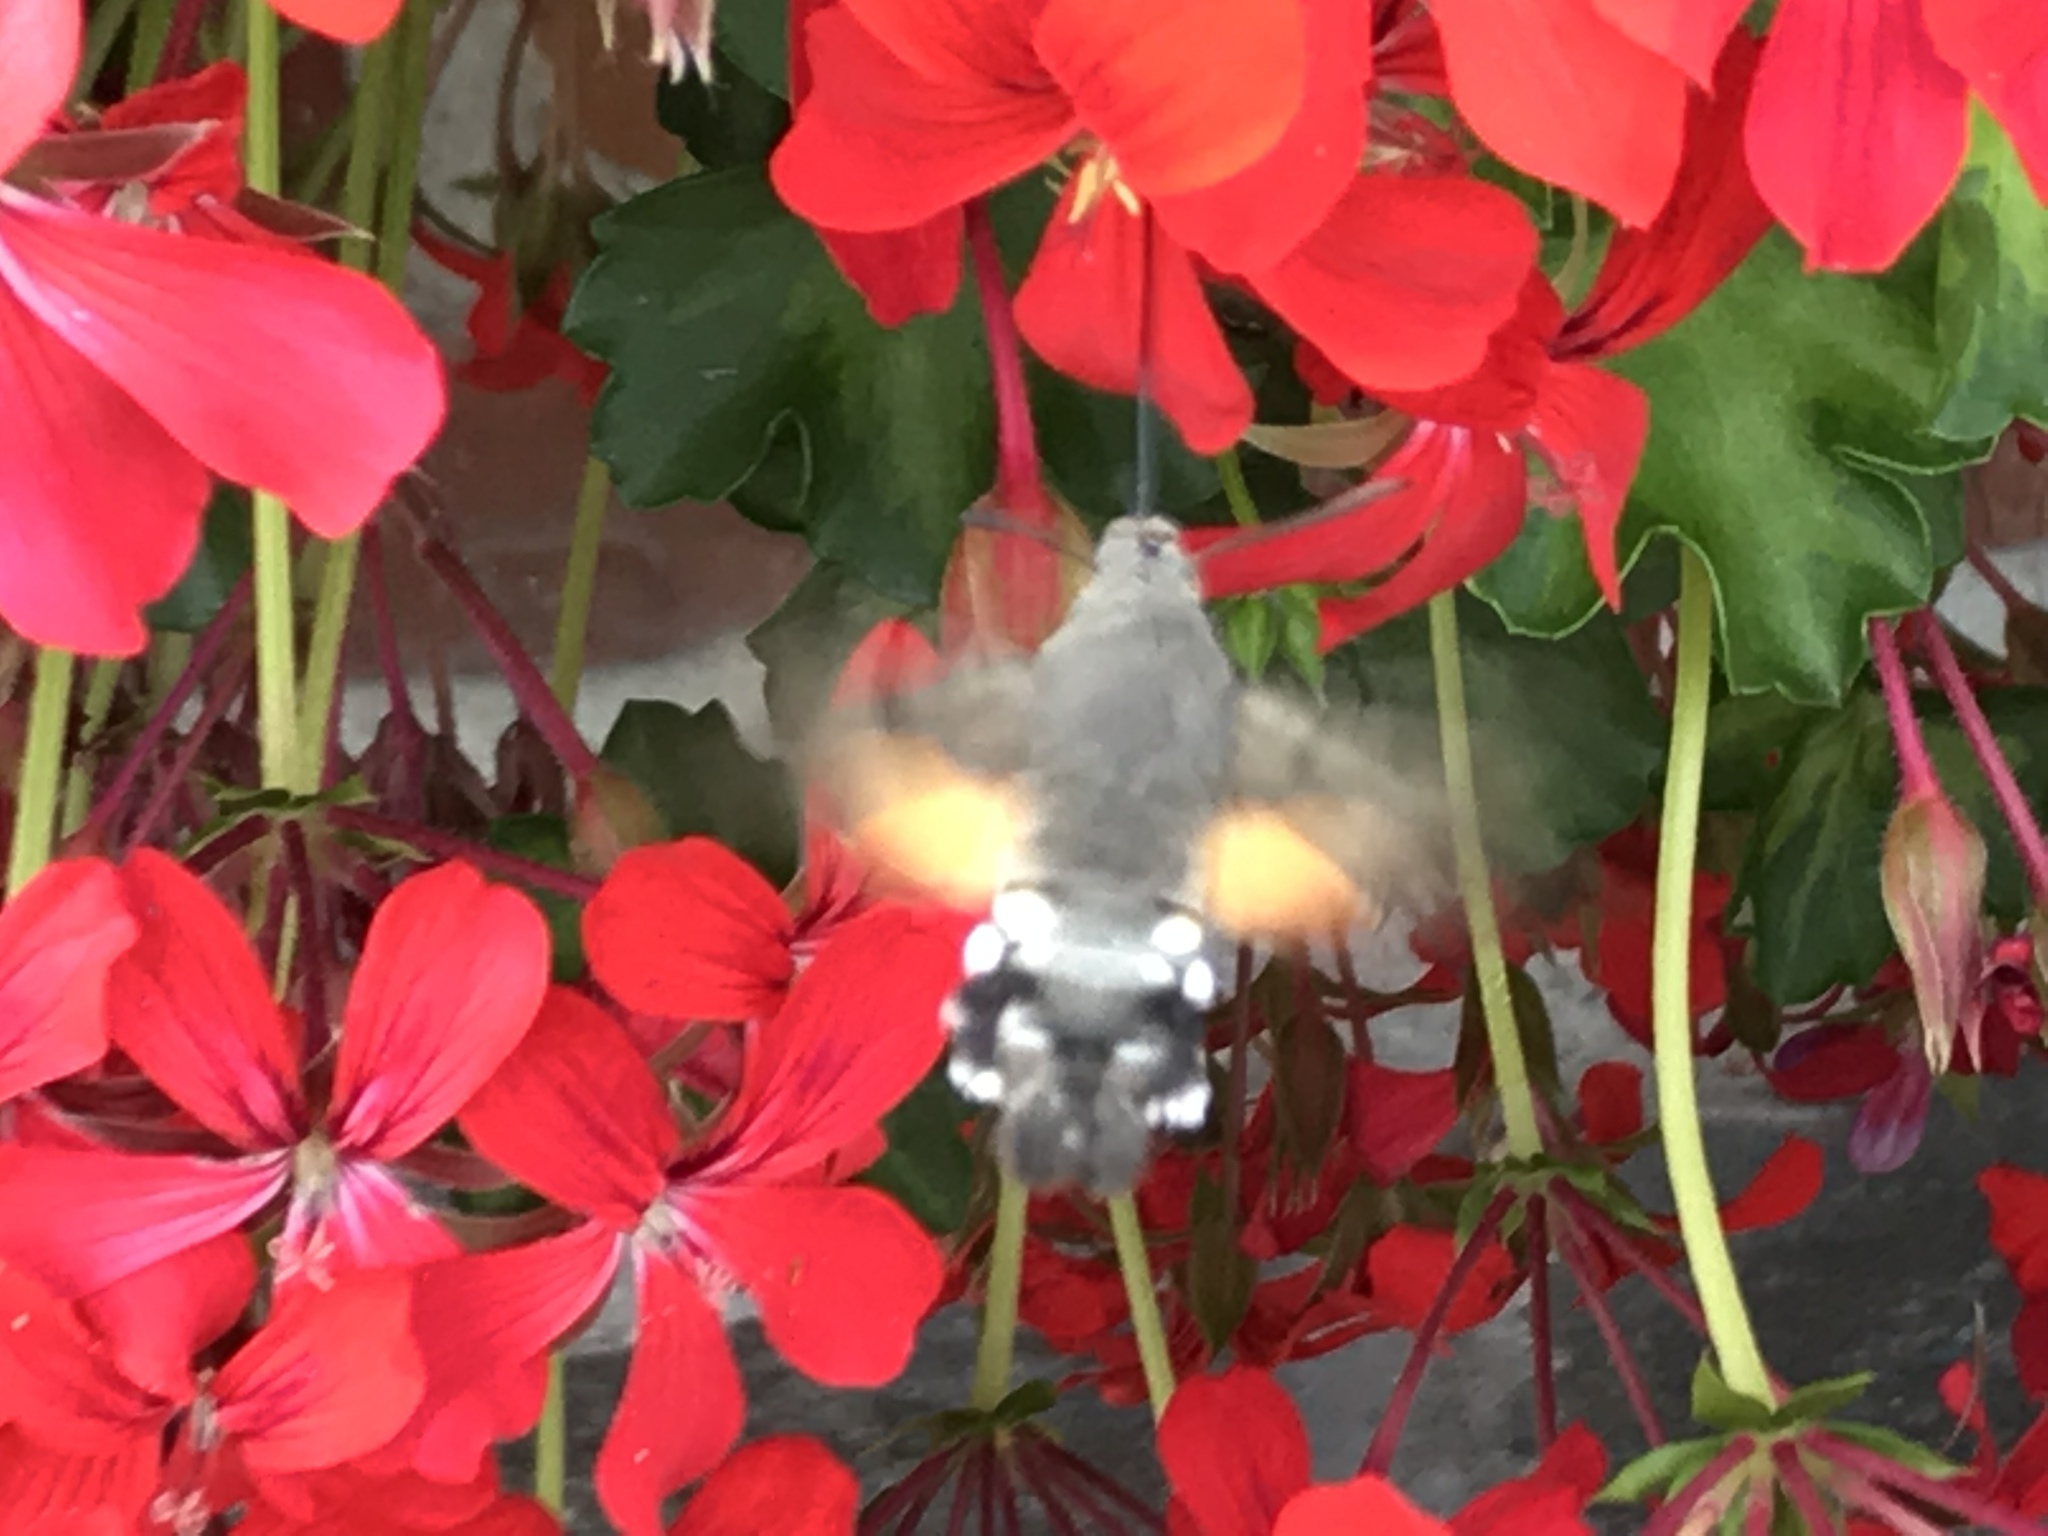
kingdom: Animalia
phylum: Arthropoda
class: Insecta
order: Lepidoptera
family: Sphingidae
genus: Macroglossum
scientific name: Macroglossum stellatarum
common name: Humming-bird hawk-moth
